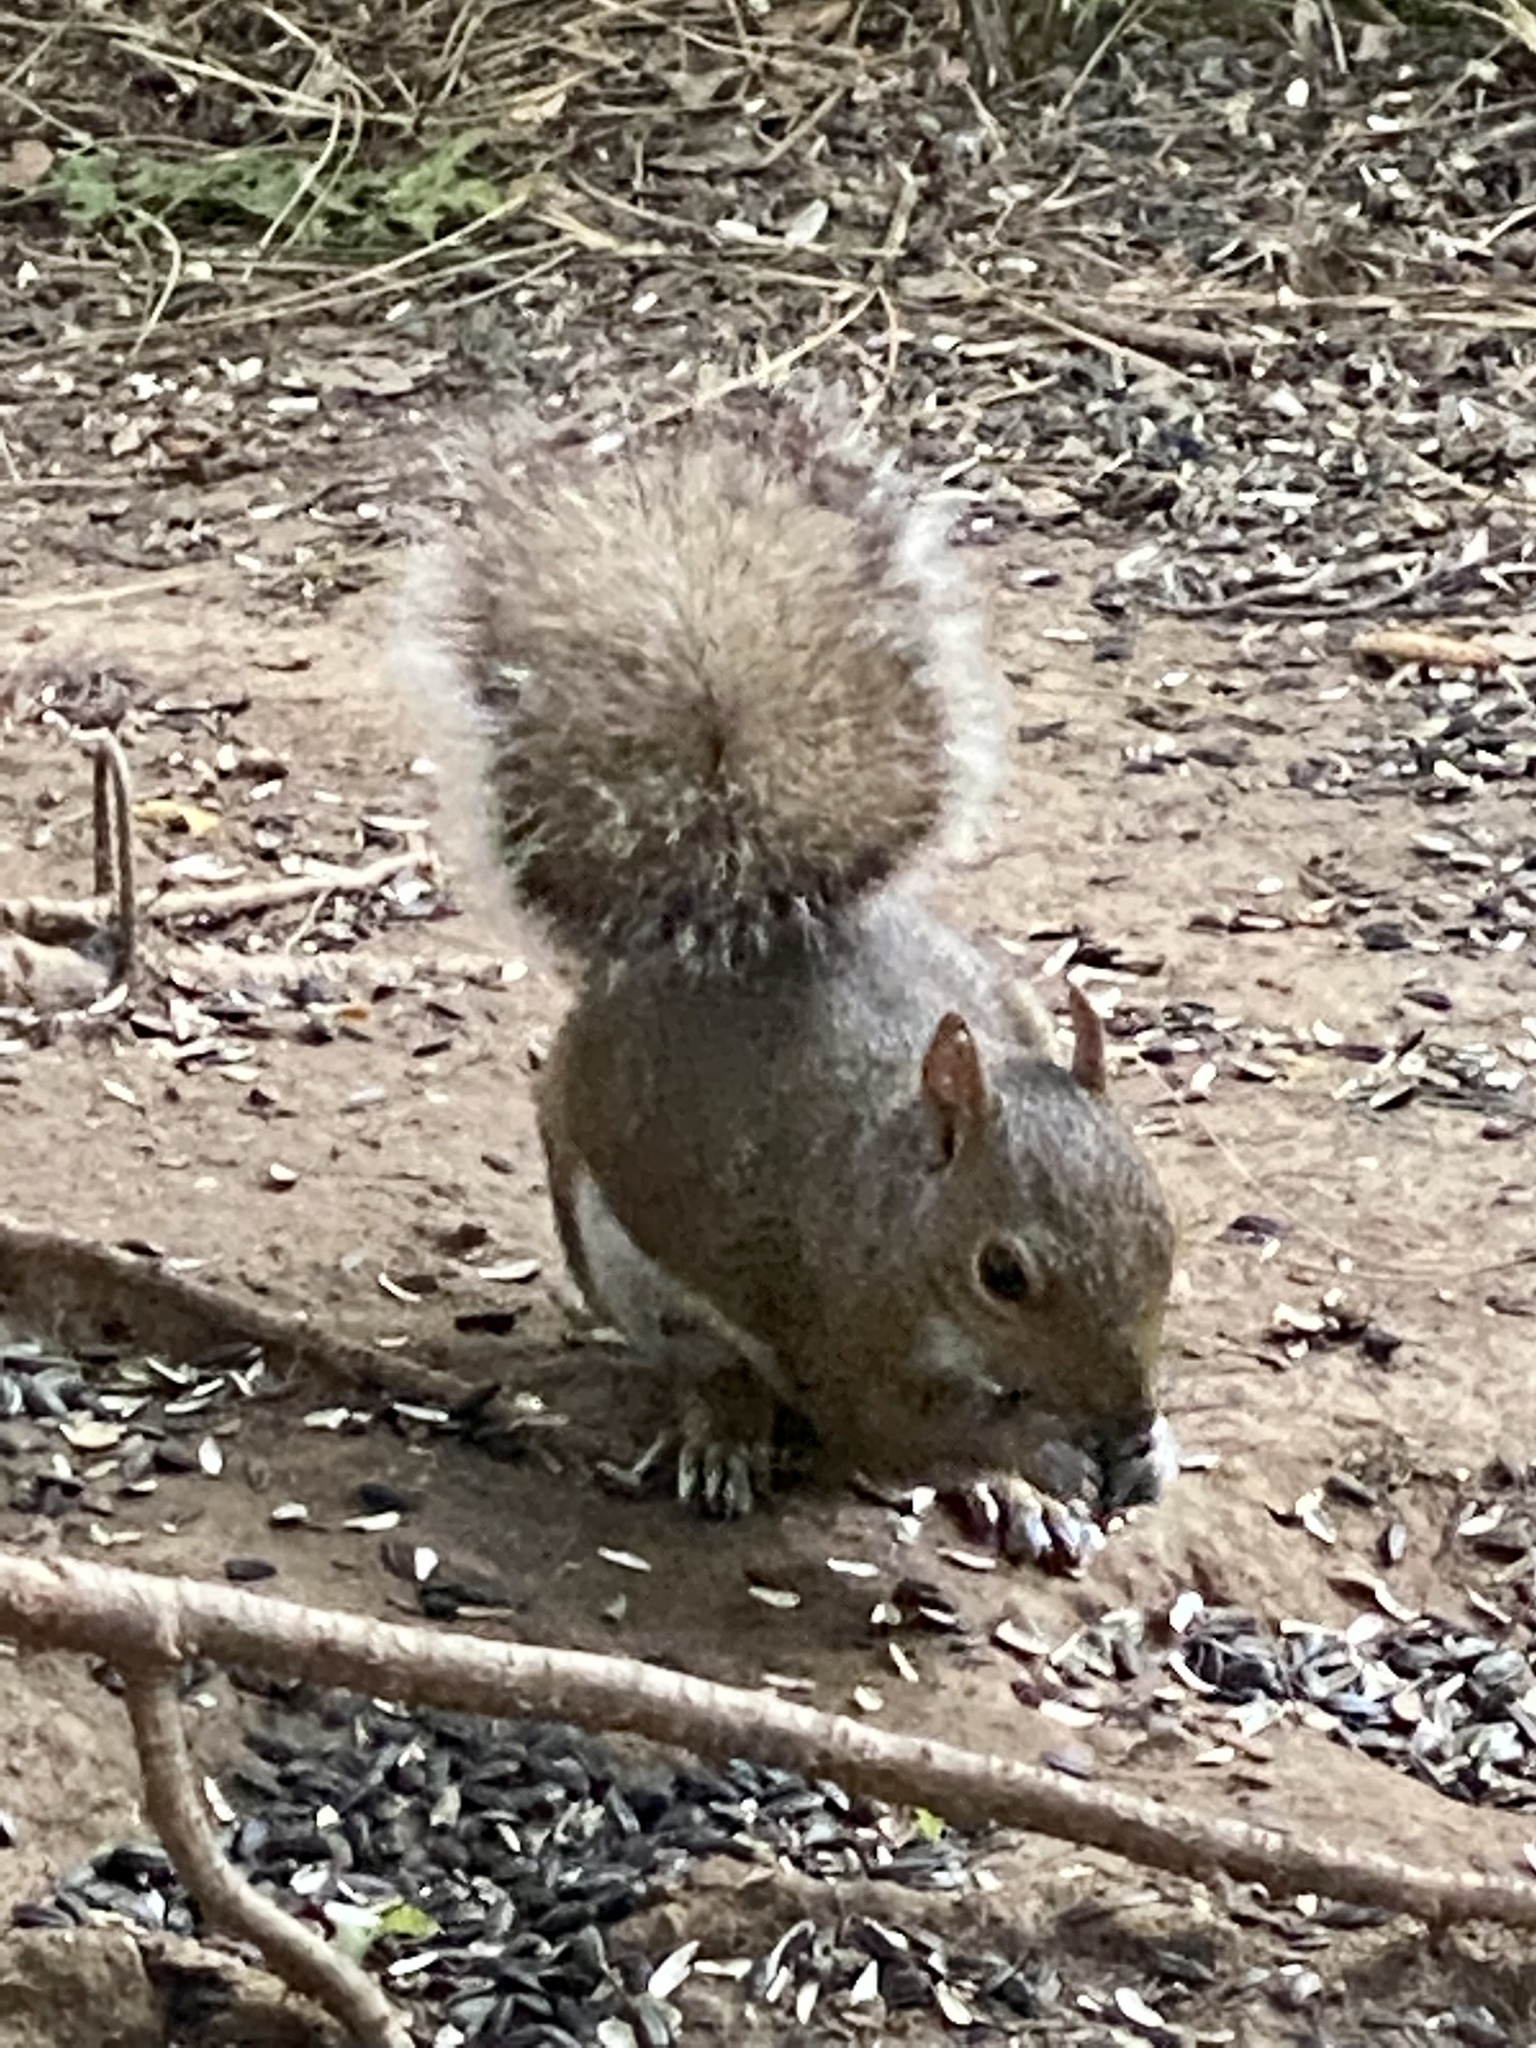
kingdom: Animalia
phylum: Chordata
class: Mammalia
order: Rodentia
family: Sciuridae
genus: Sciurus
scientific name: Sciurus carolinensis
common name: Eastern gray squirrel
